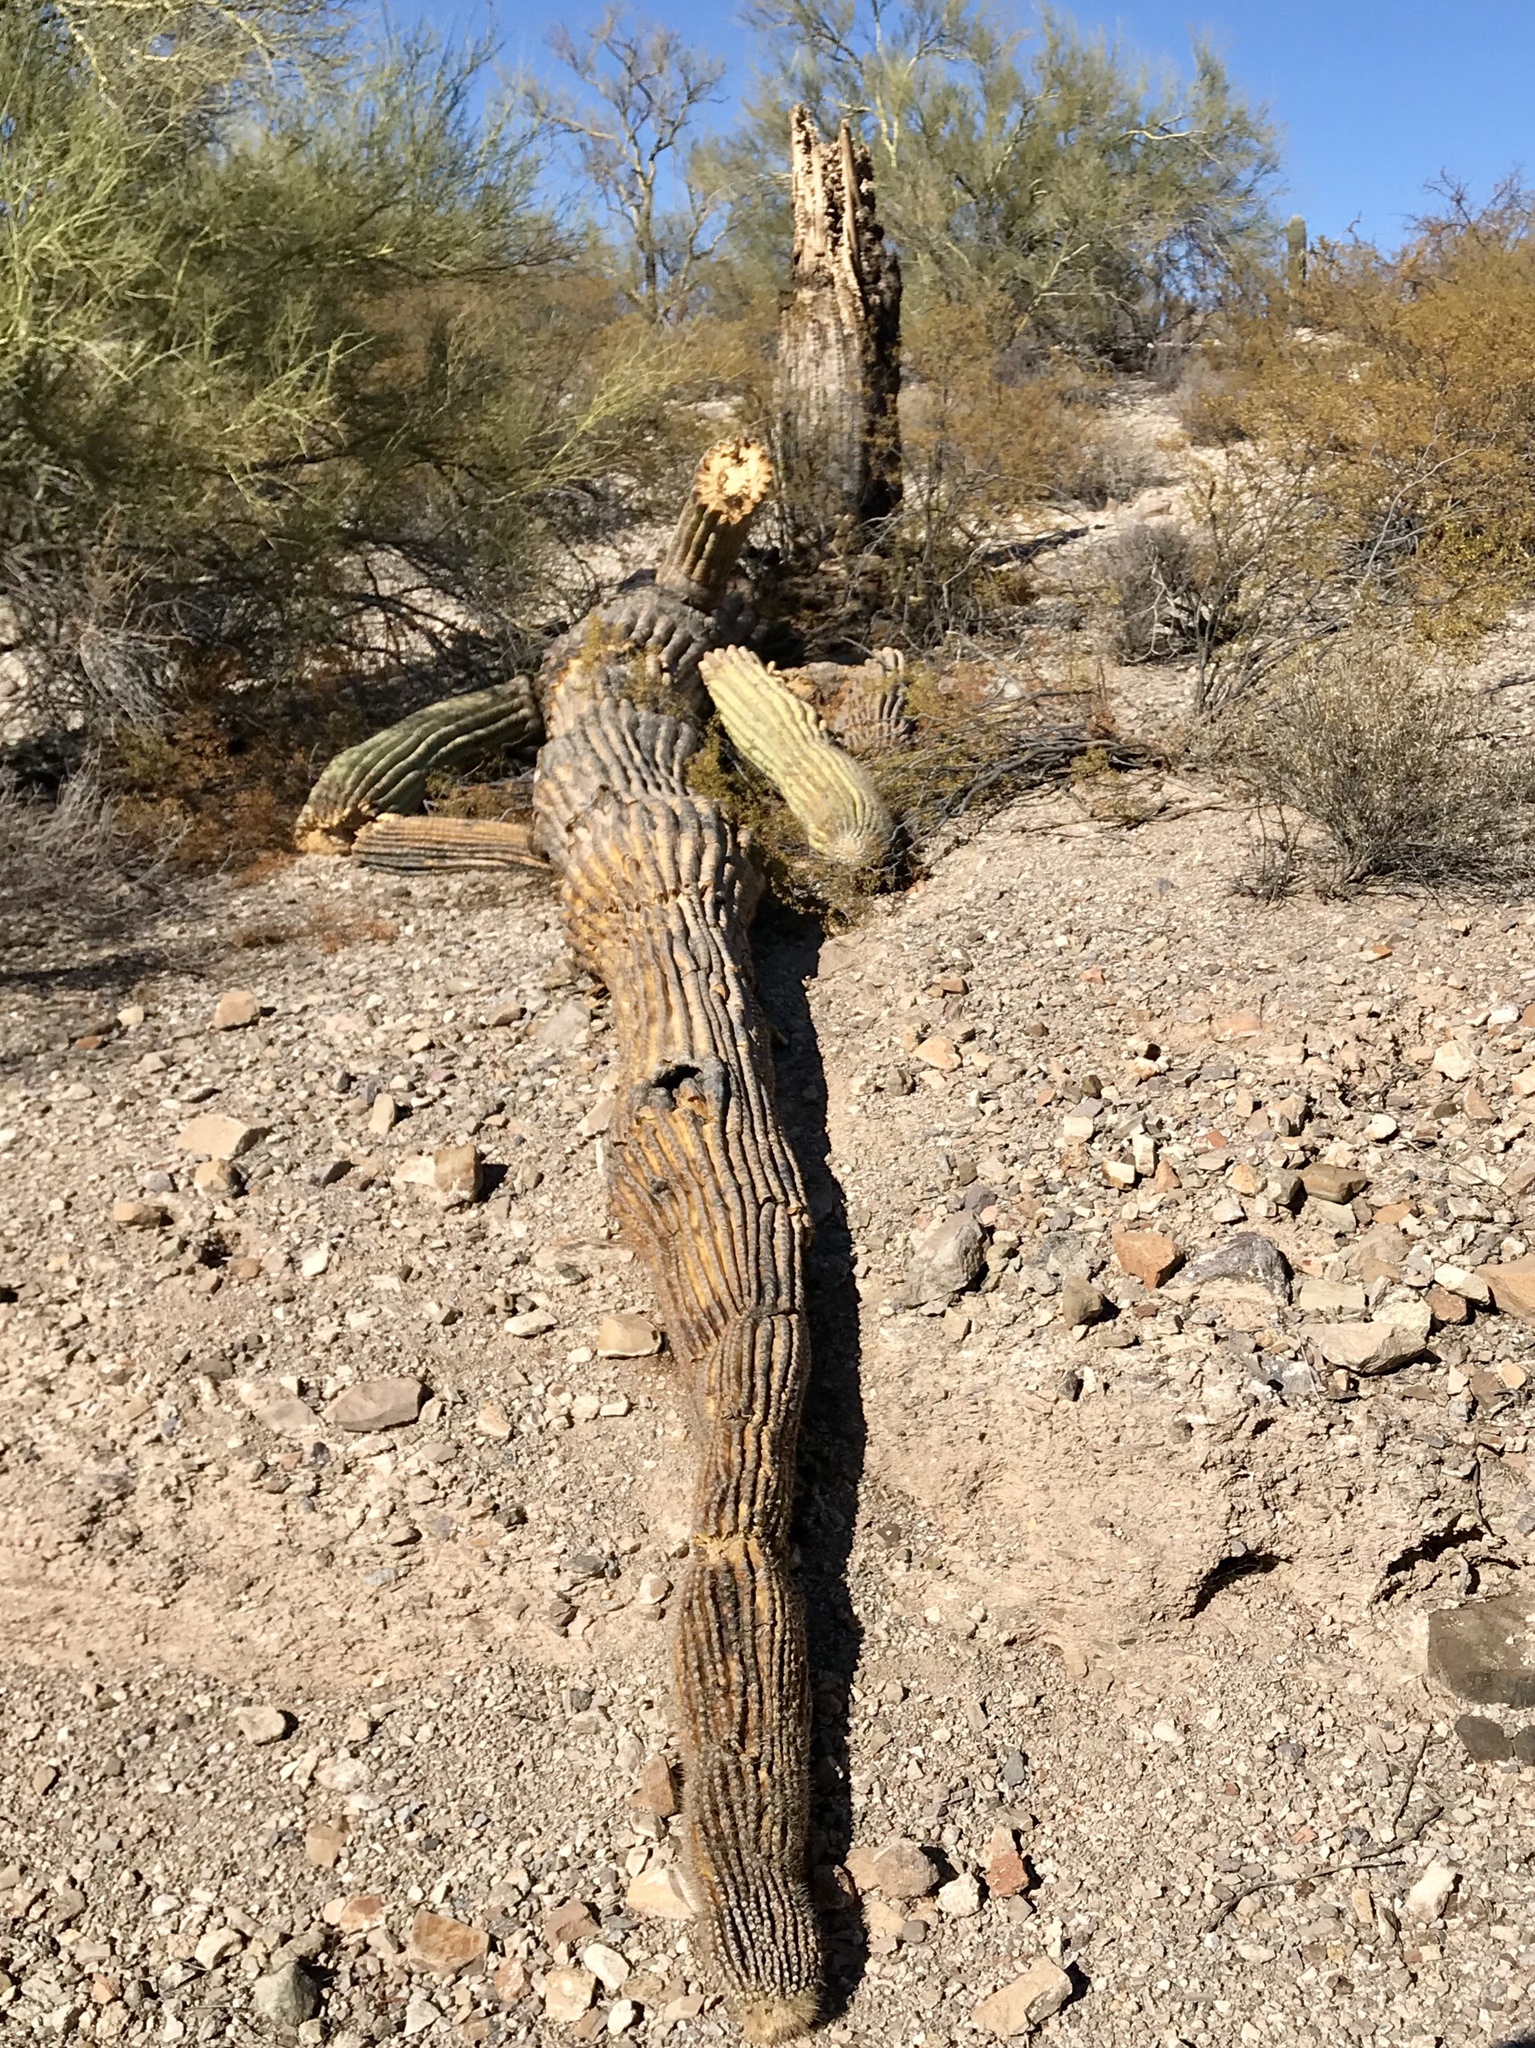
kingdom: Plantae
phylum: Tracheophyta
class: Magnoliopsida
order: Caryophyllales
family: Cactaceae
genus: Carnegiea
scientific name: Carnegiea gigantea
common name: Saguaro
